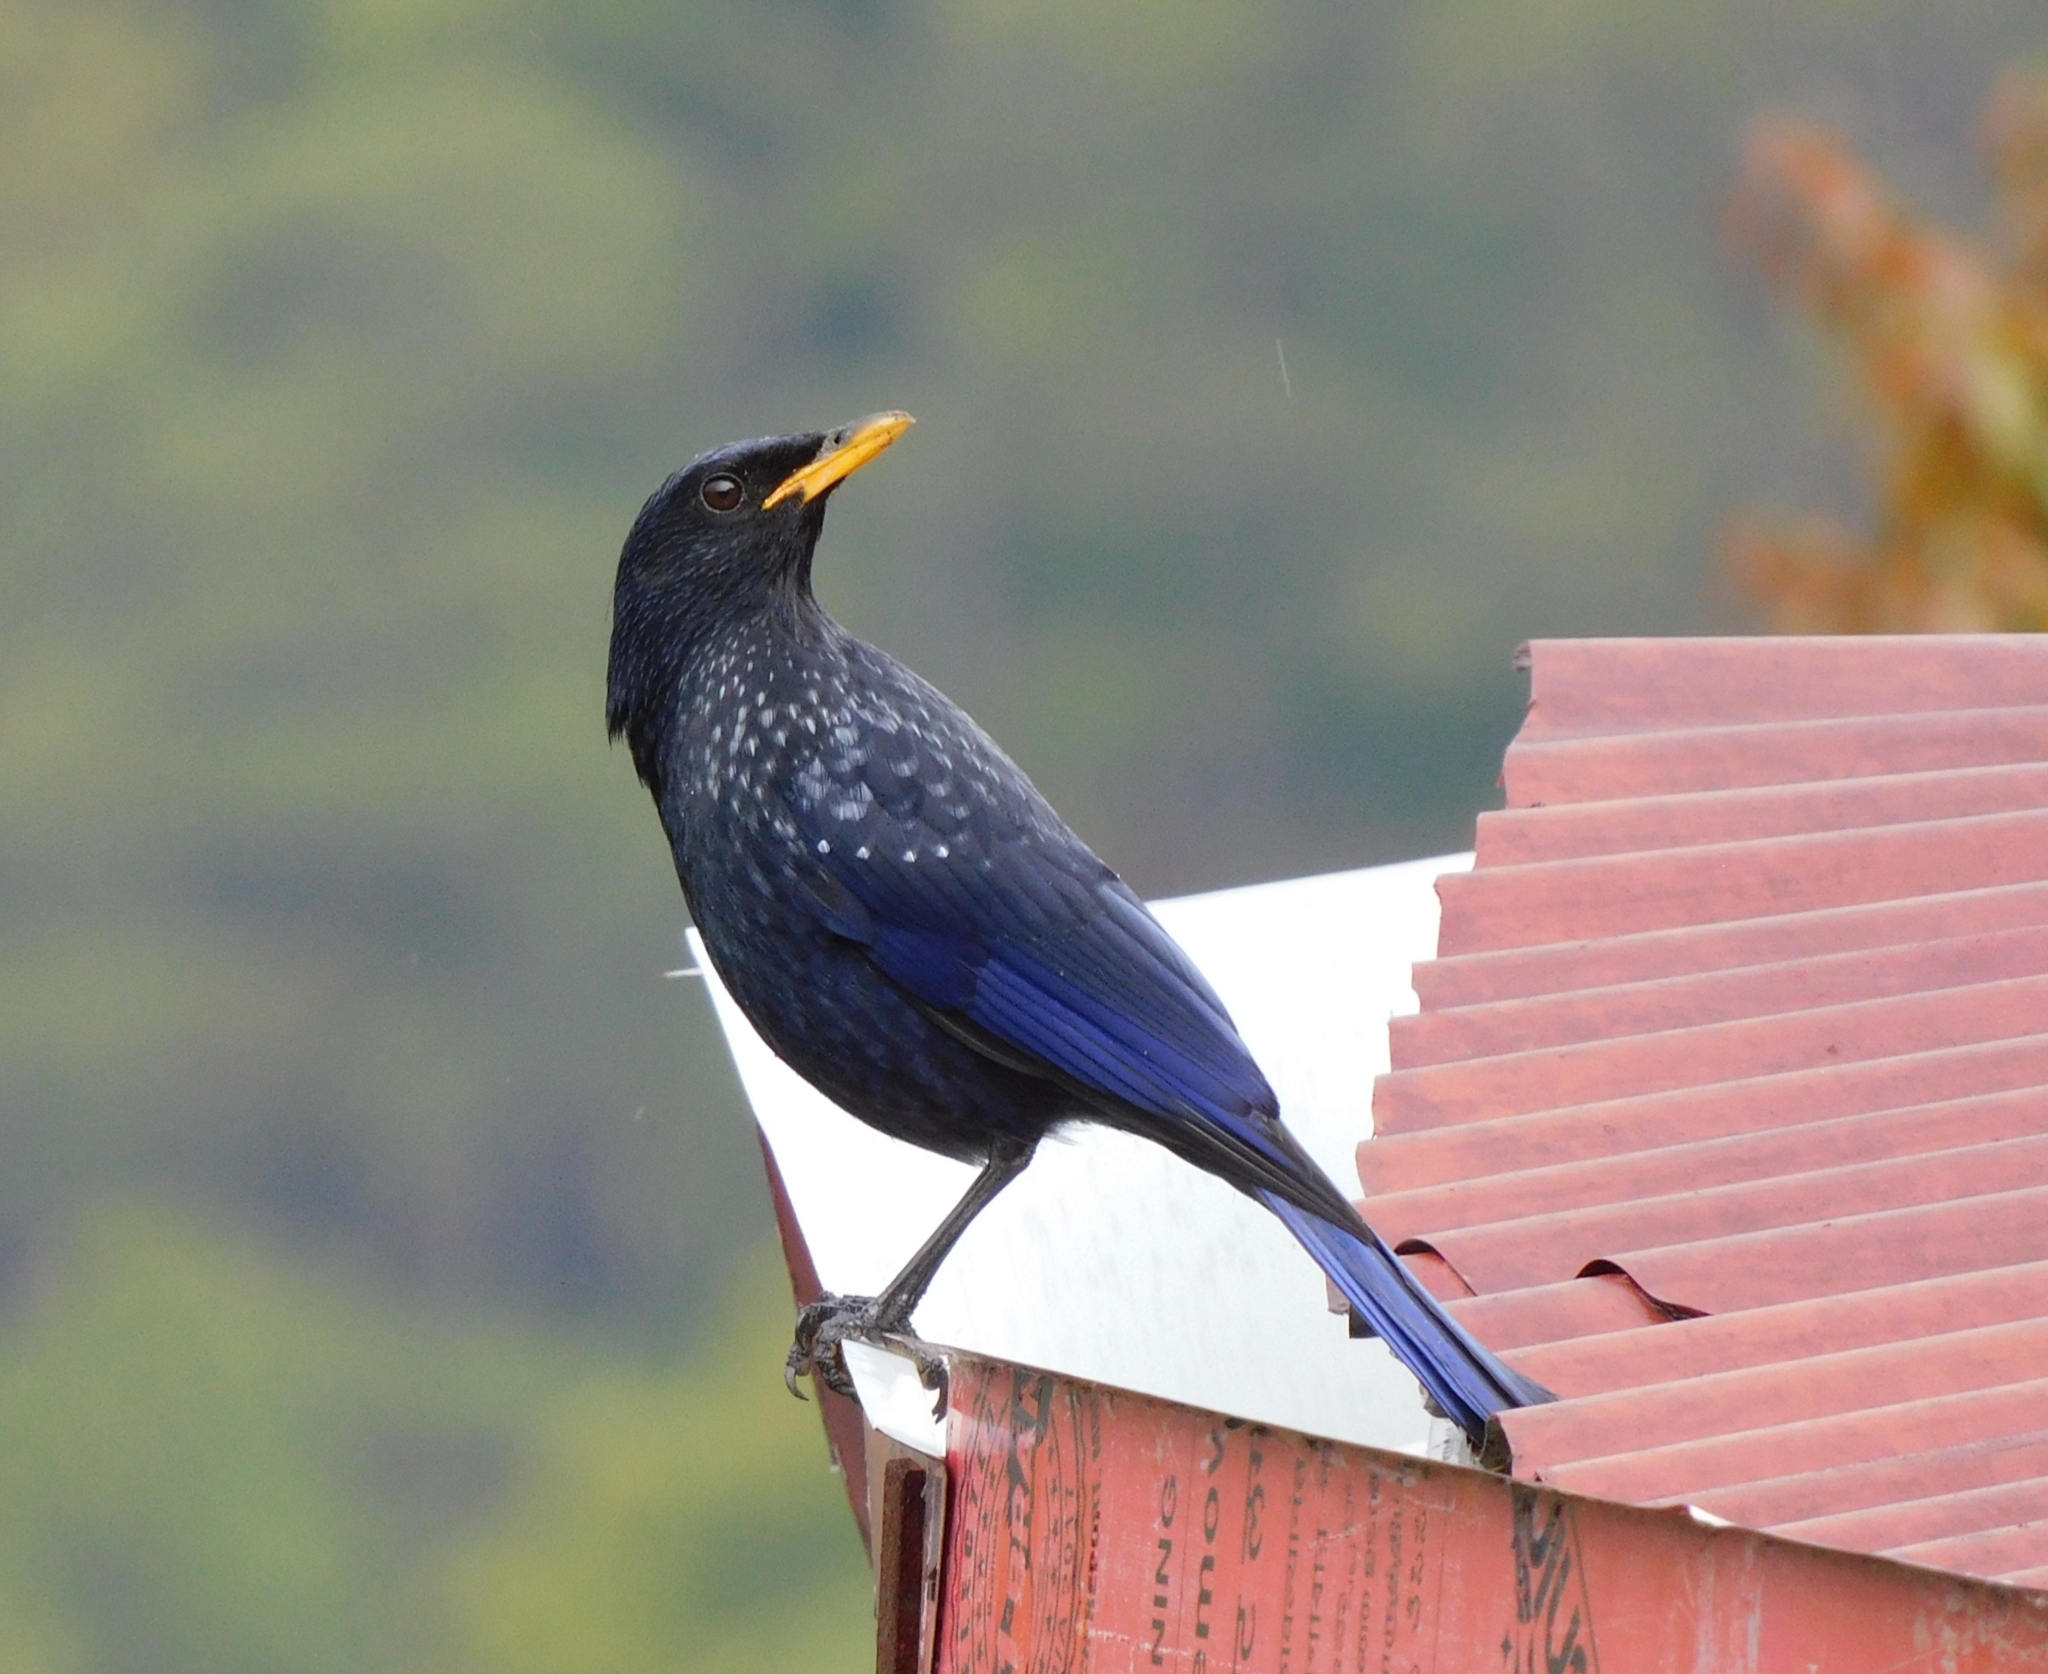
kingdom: Animalia
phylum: Chordata
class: Aves
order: Passeriformes
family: Muscicapidae
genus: Myophonus
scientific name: Myophonus caeruleus
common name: Blue whistling-thrush
